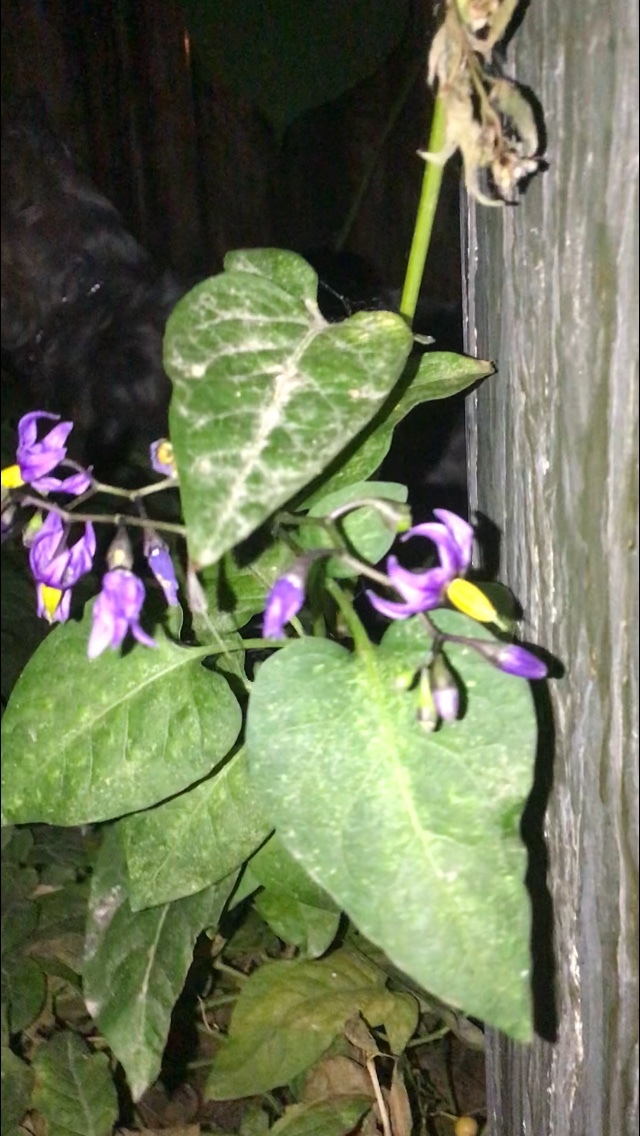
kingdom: Plantae
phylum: Tracheophyta
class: Magnoliopsida
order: Solanales
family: Solanaceae
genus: Solanum
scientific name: Solanum dulcamara
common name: Climbing nightshade
